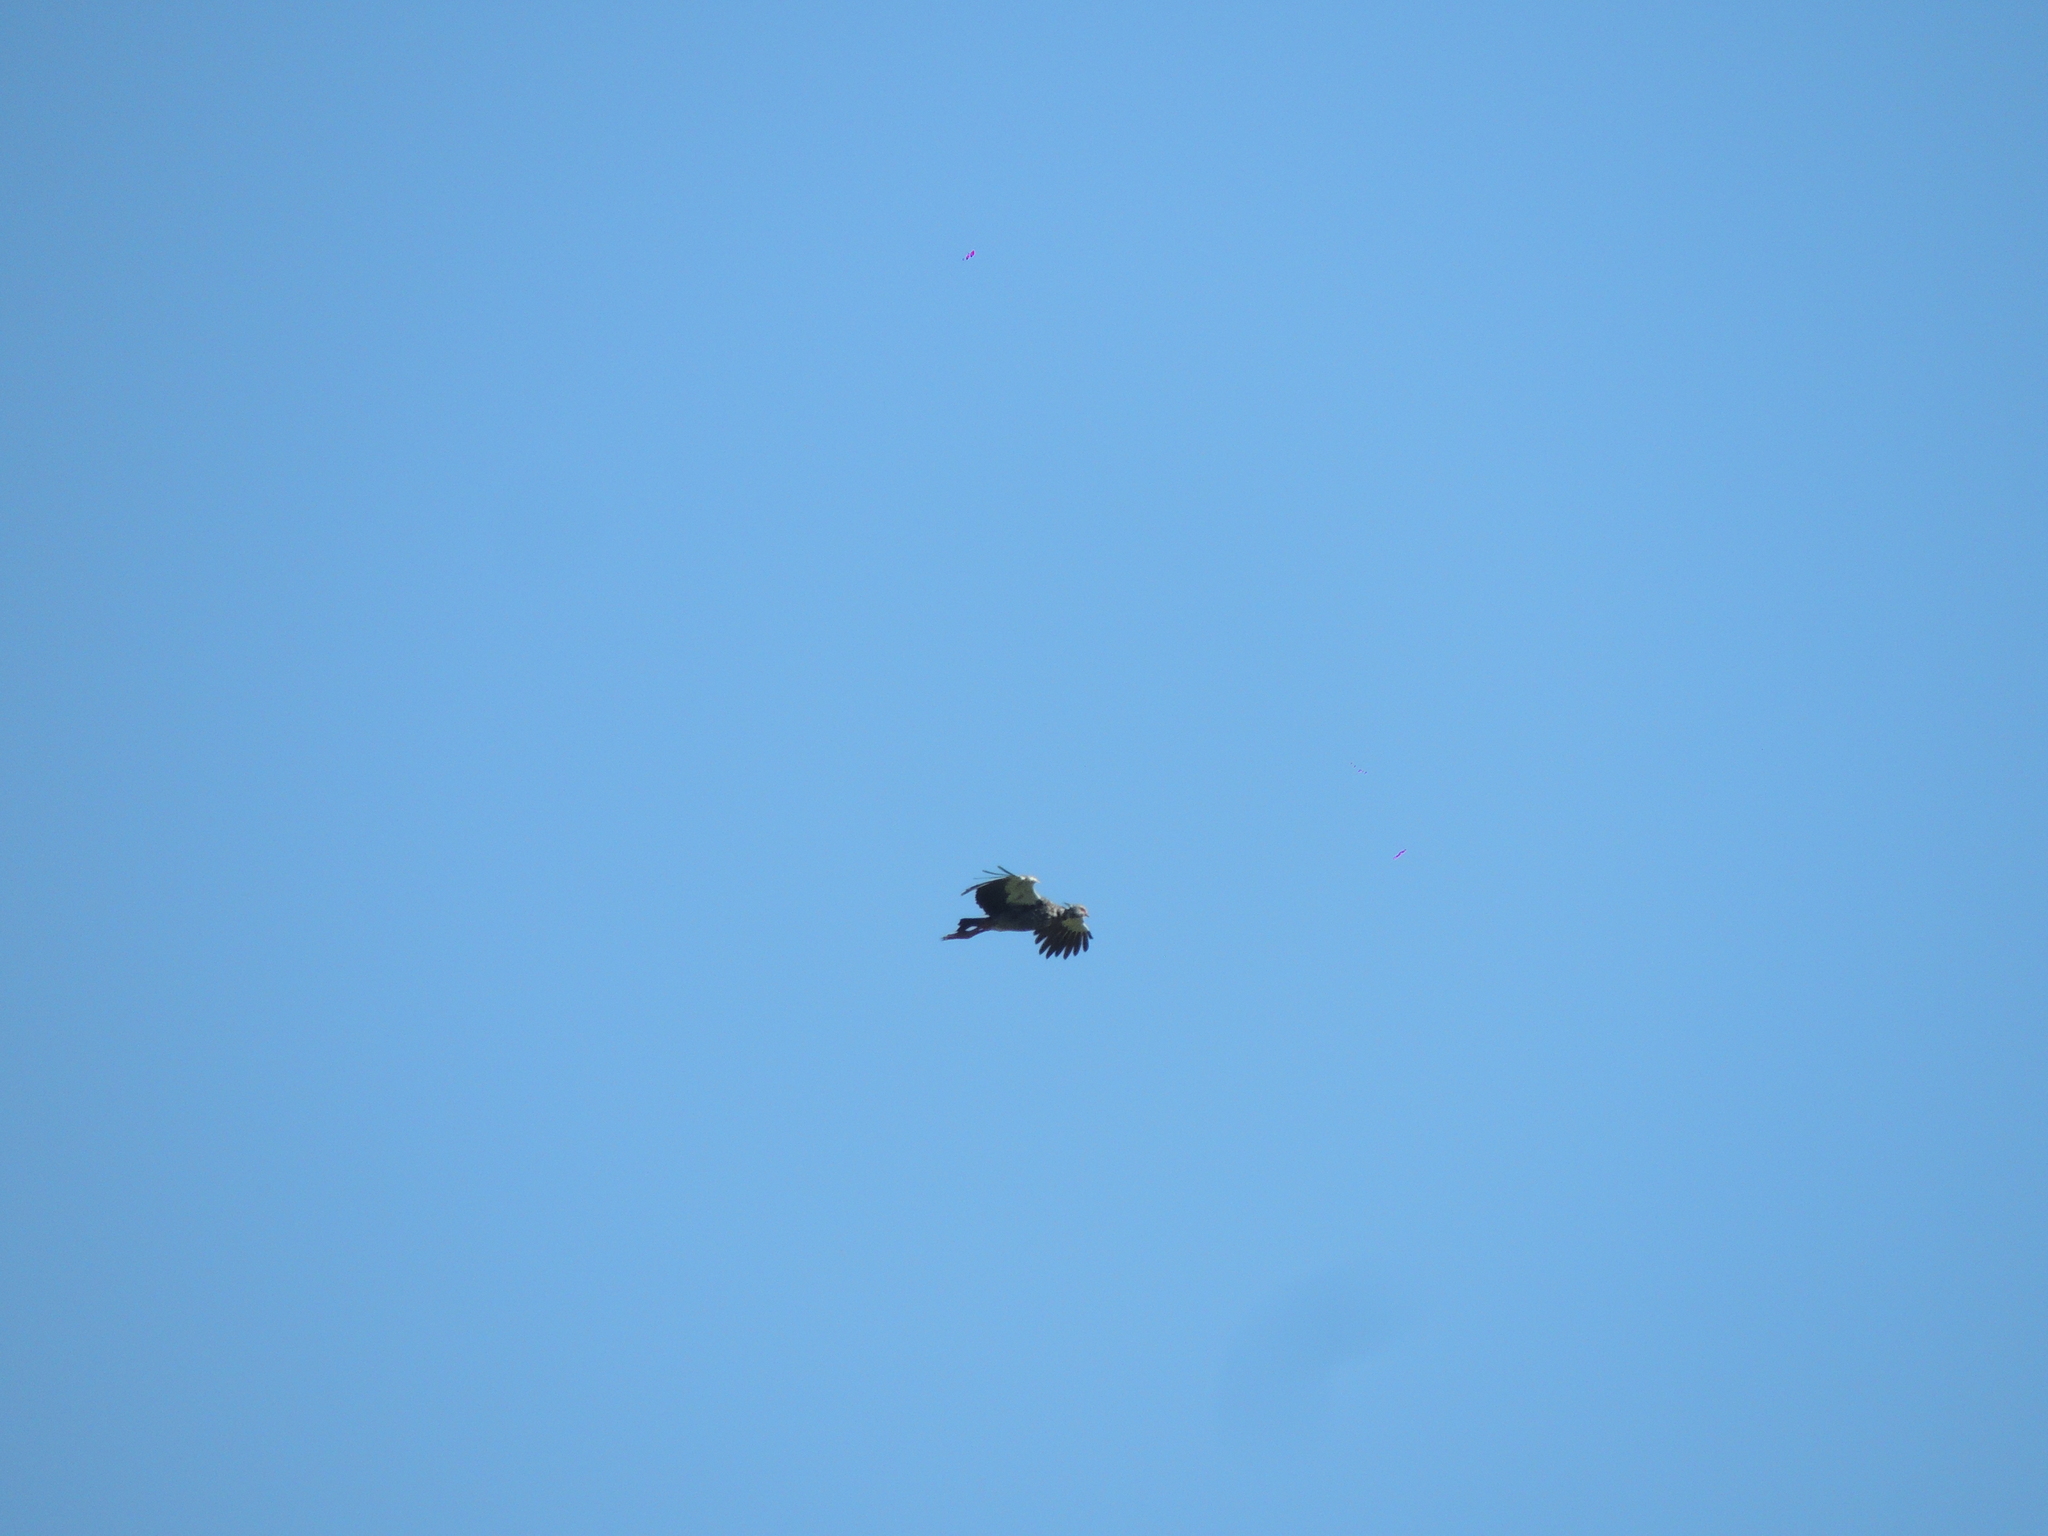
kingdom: Animalia
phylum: Chordata
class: Aves
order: Anseriformes
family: Anhimidae
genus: Chauna
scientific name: Chauna torquata
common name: Southern screamer
